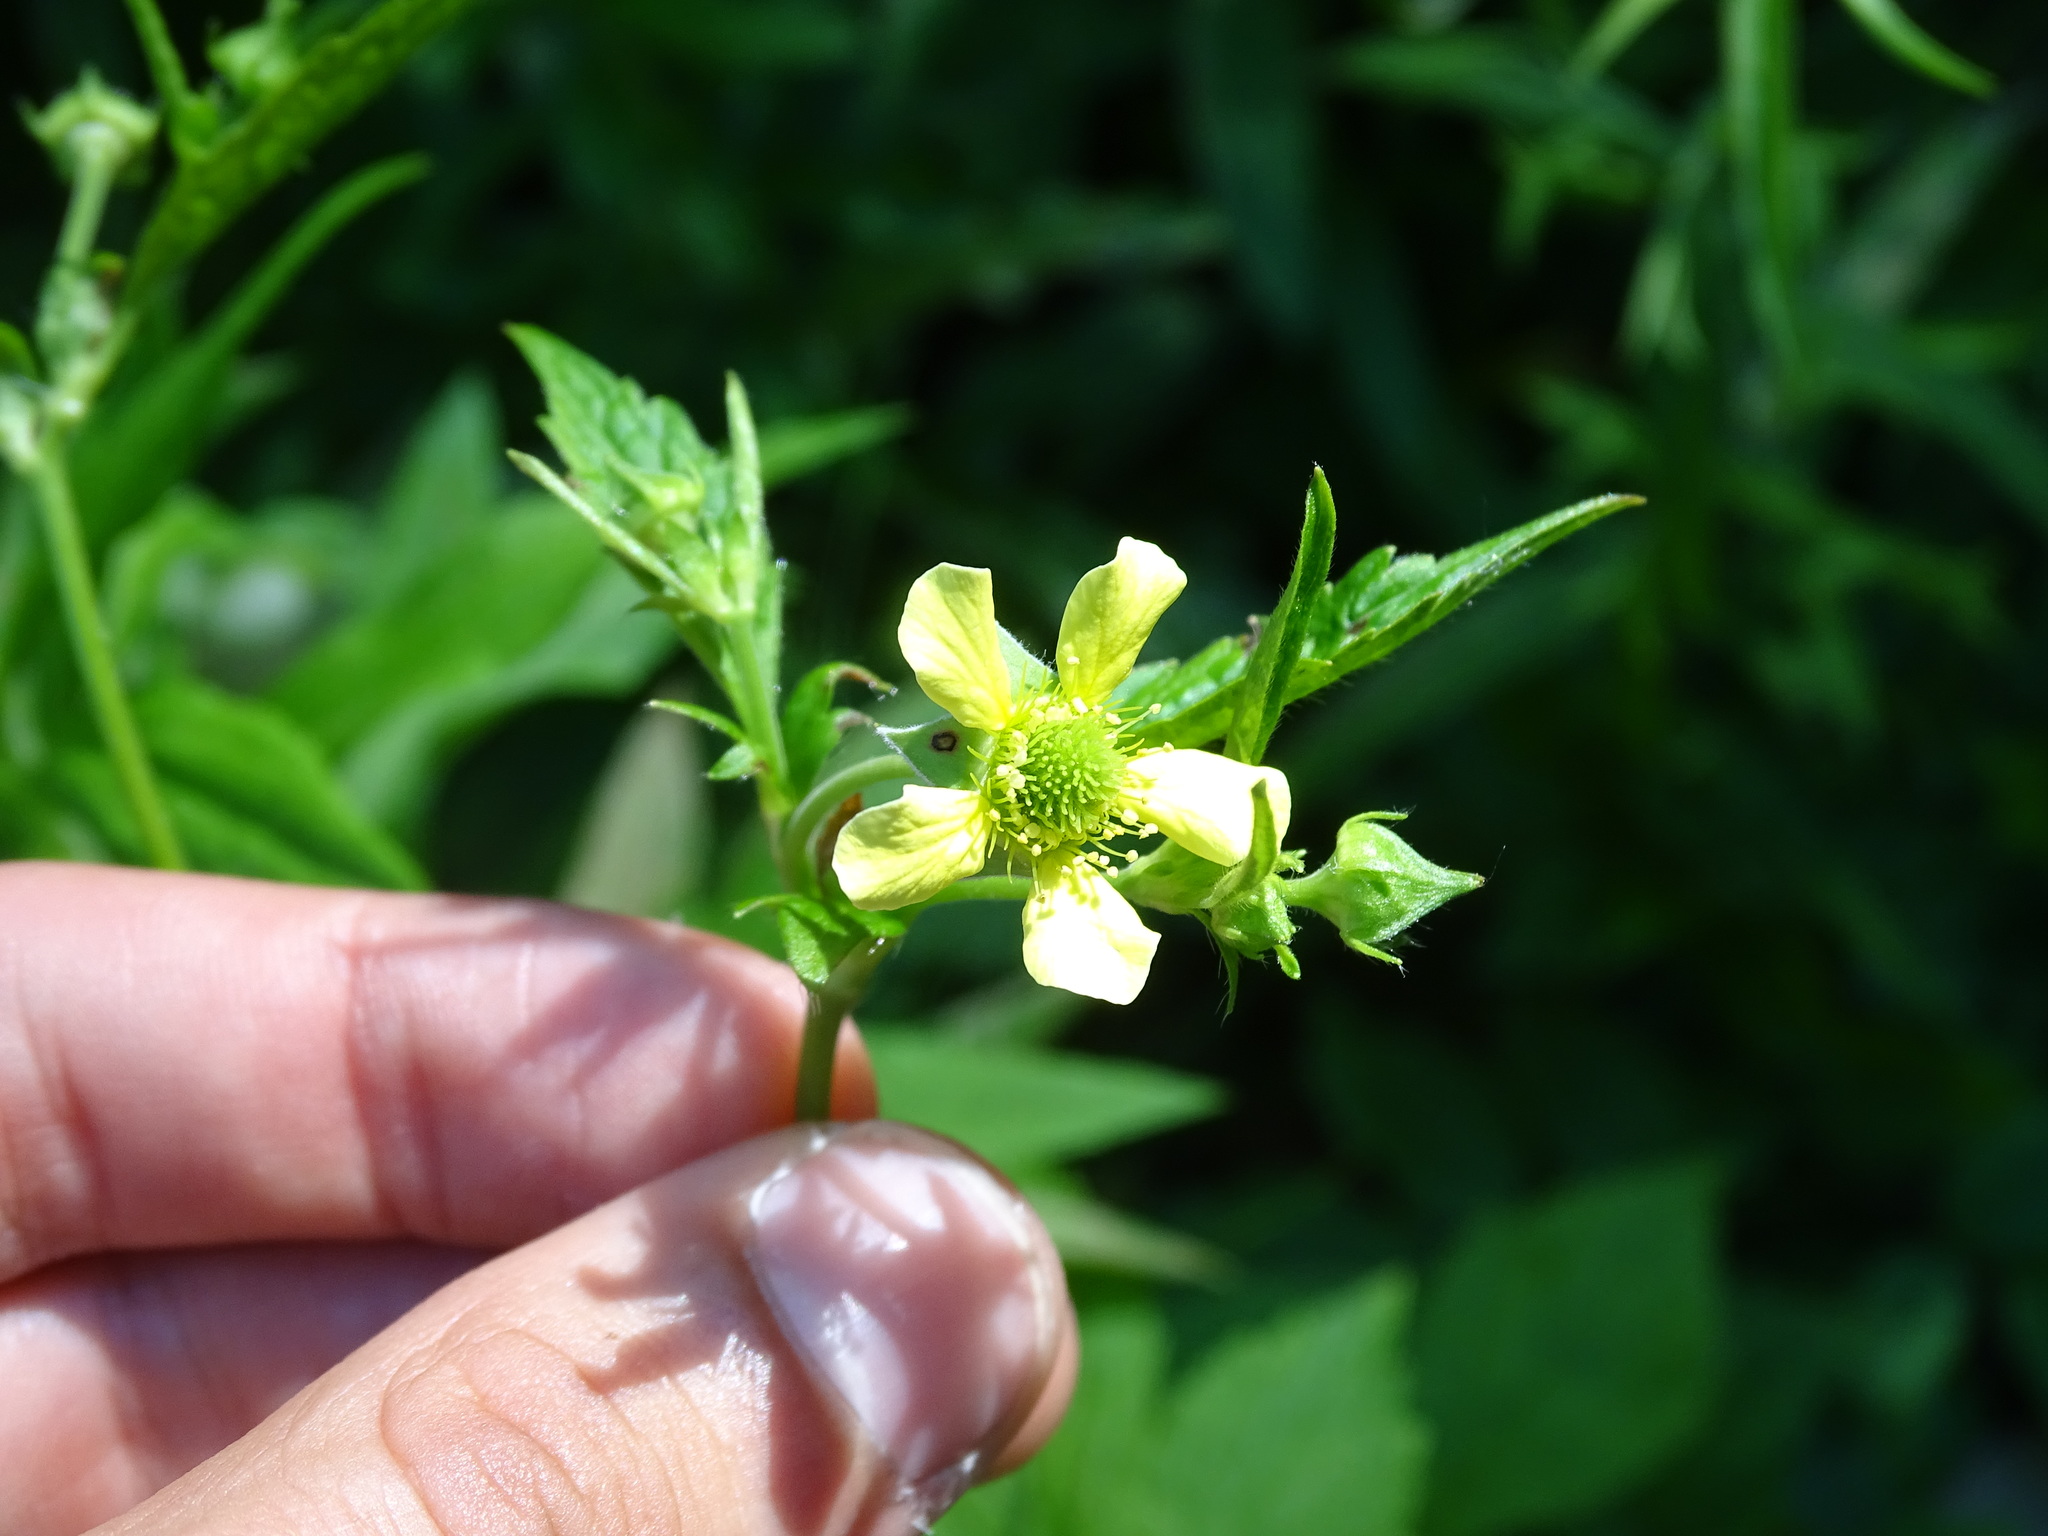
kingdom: Plantae
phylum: Tracheophyta
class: Magnoliopsida
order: Rosales
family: Rosaceae
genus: Geum
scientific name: Geum catlingii
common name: Catling's avens
